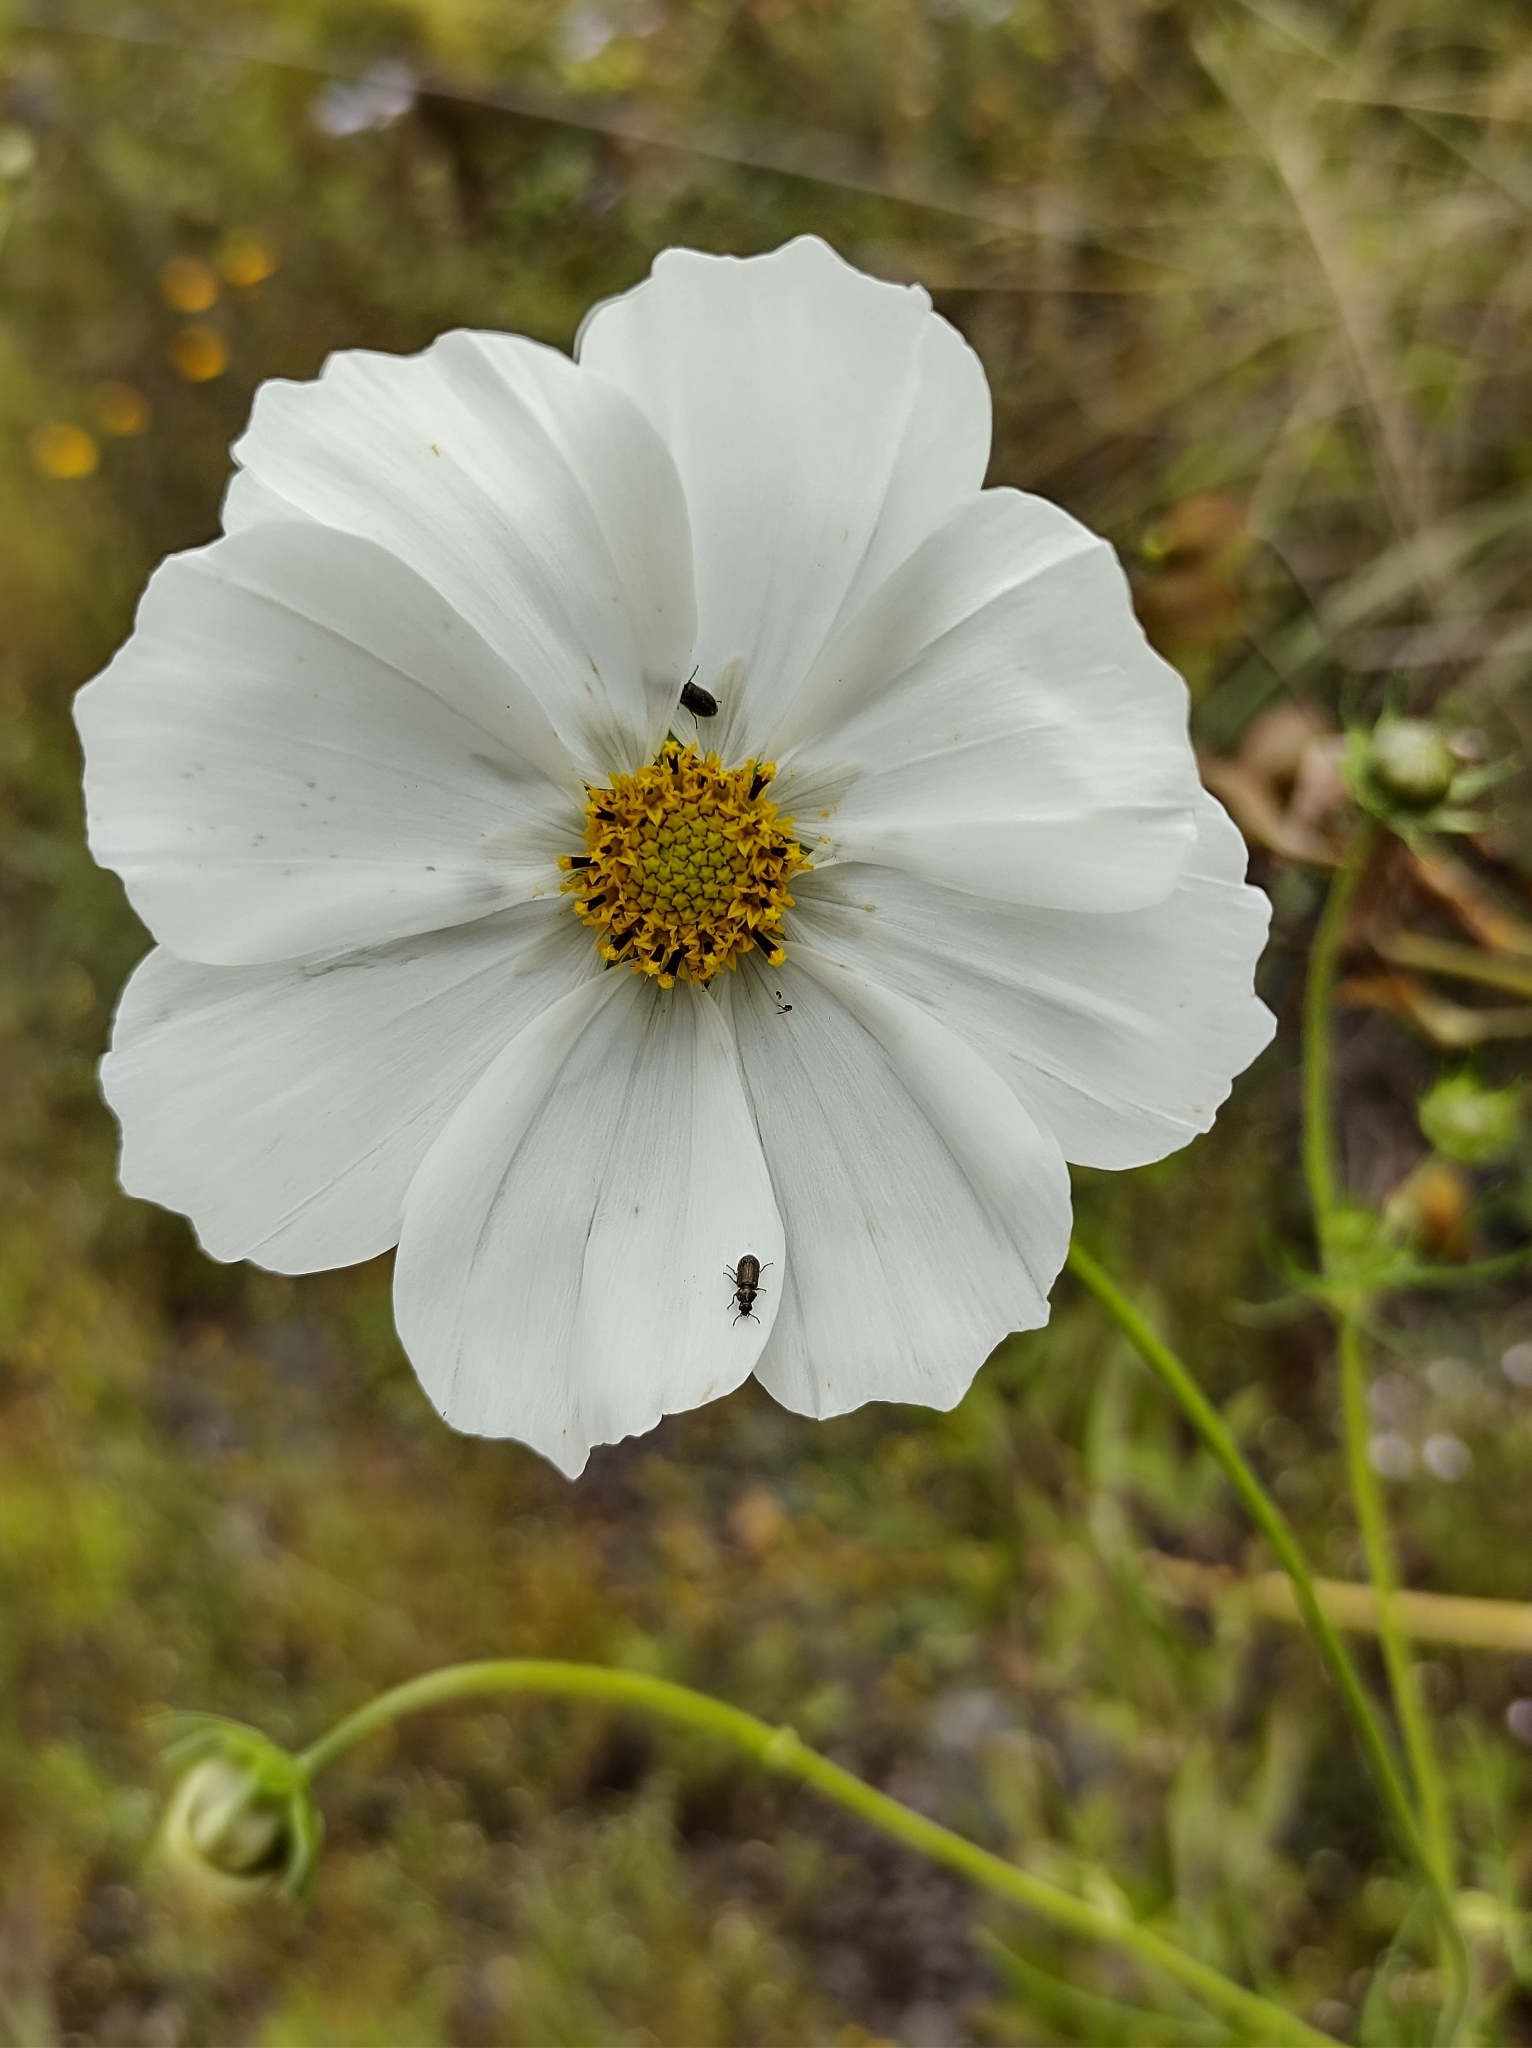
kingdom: Plantae
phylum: Tracheophyta
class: Magnoliopsida
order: Asterales
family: Asteraceae
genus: Cosmos
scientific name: Cosmos bipinnatus
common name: Garden cosmos
